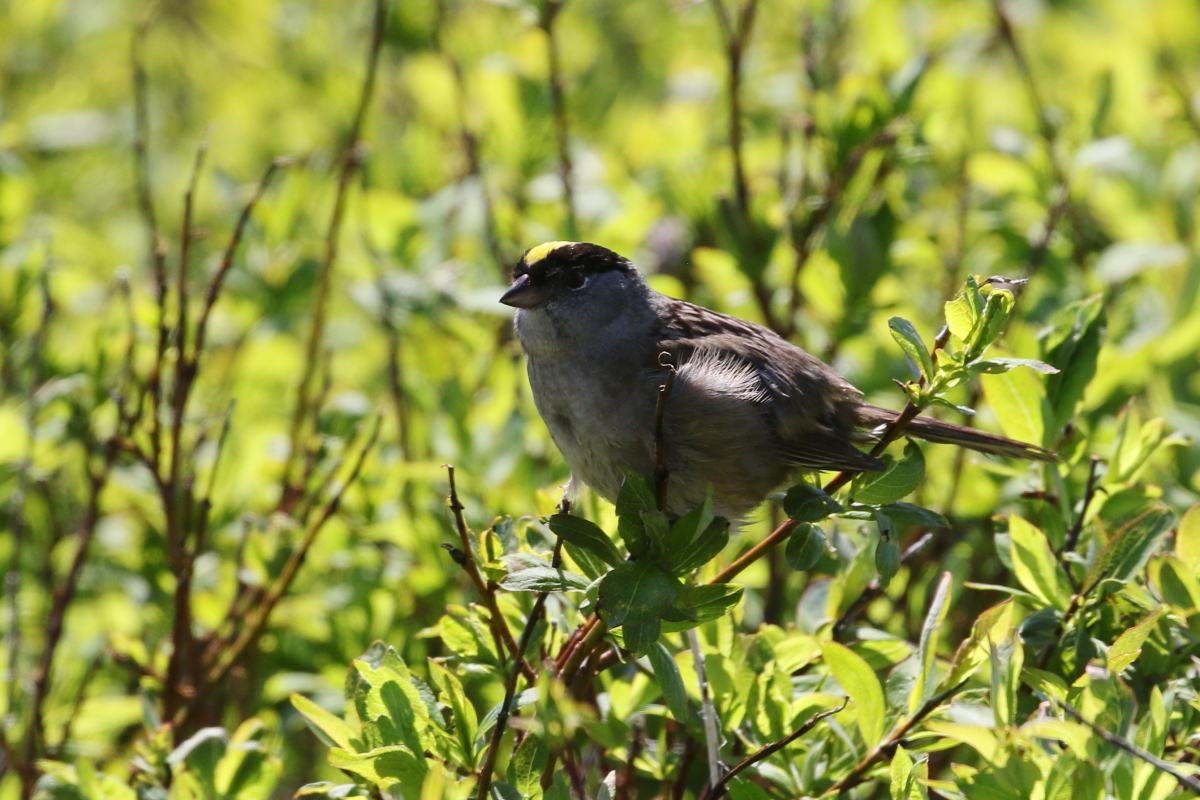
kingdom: Animalia
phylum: Chordata
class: Aves
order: Passeriformes
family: Passerellidae
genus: Zonotrichia
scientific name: Zonotrichia atricapilla
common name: Golden-crowned sparrow
